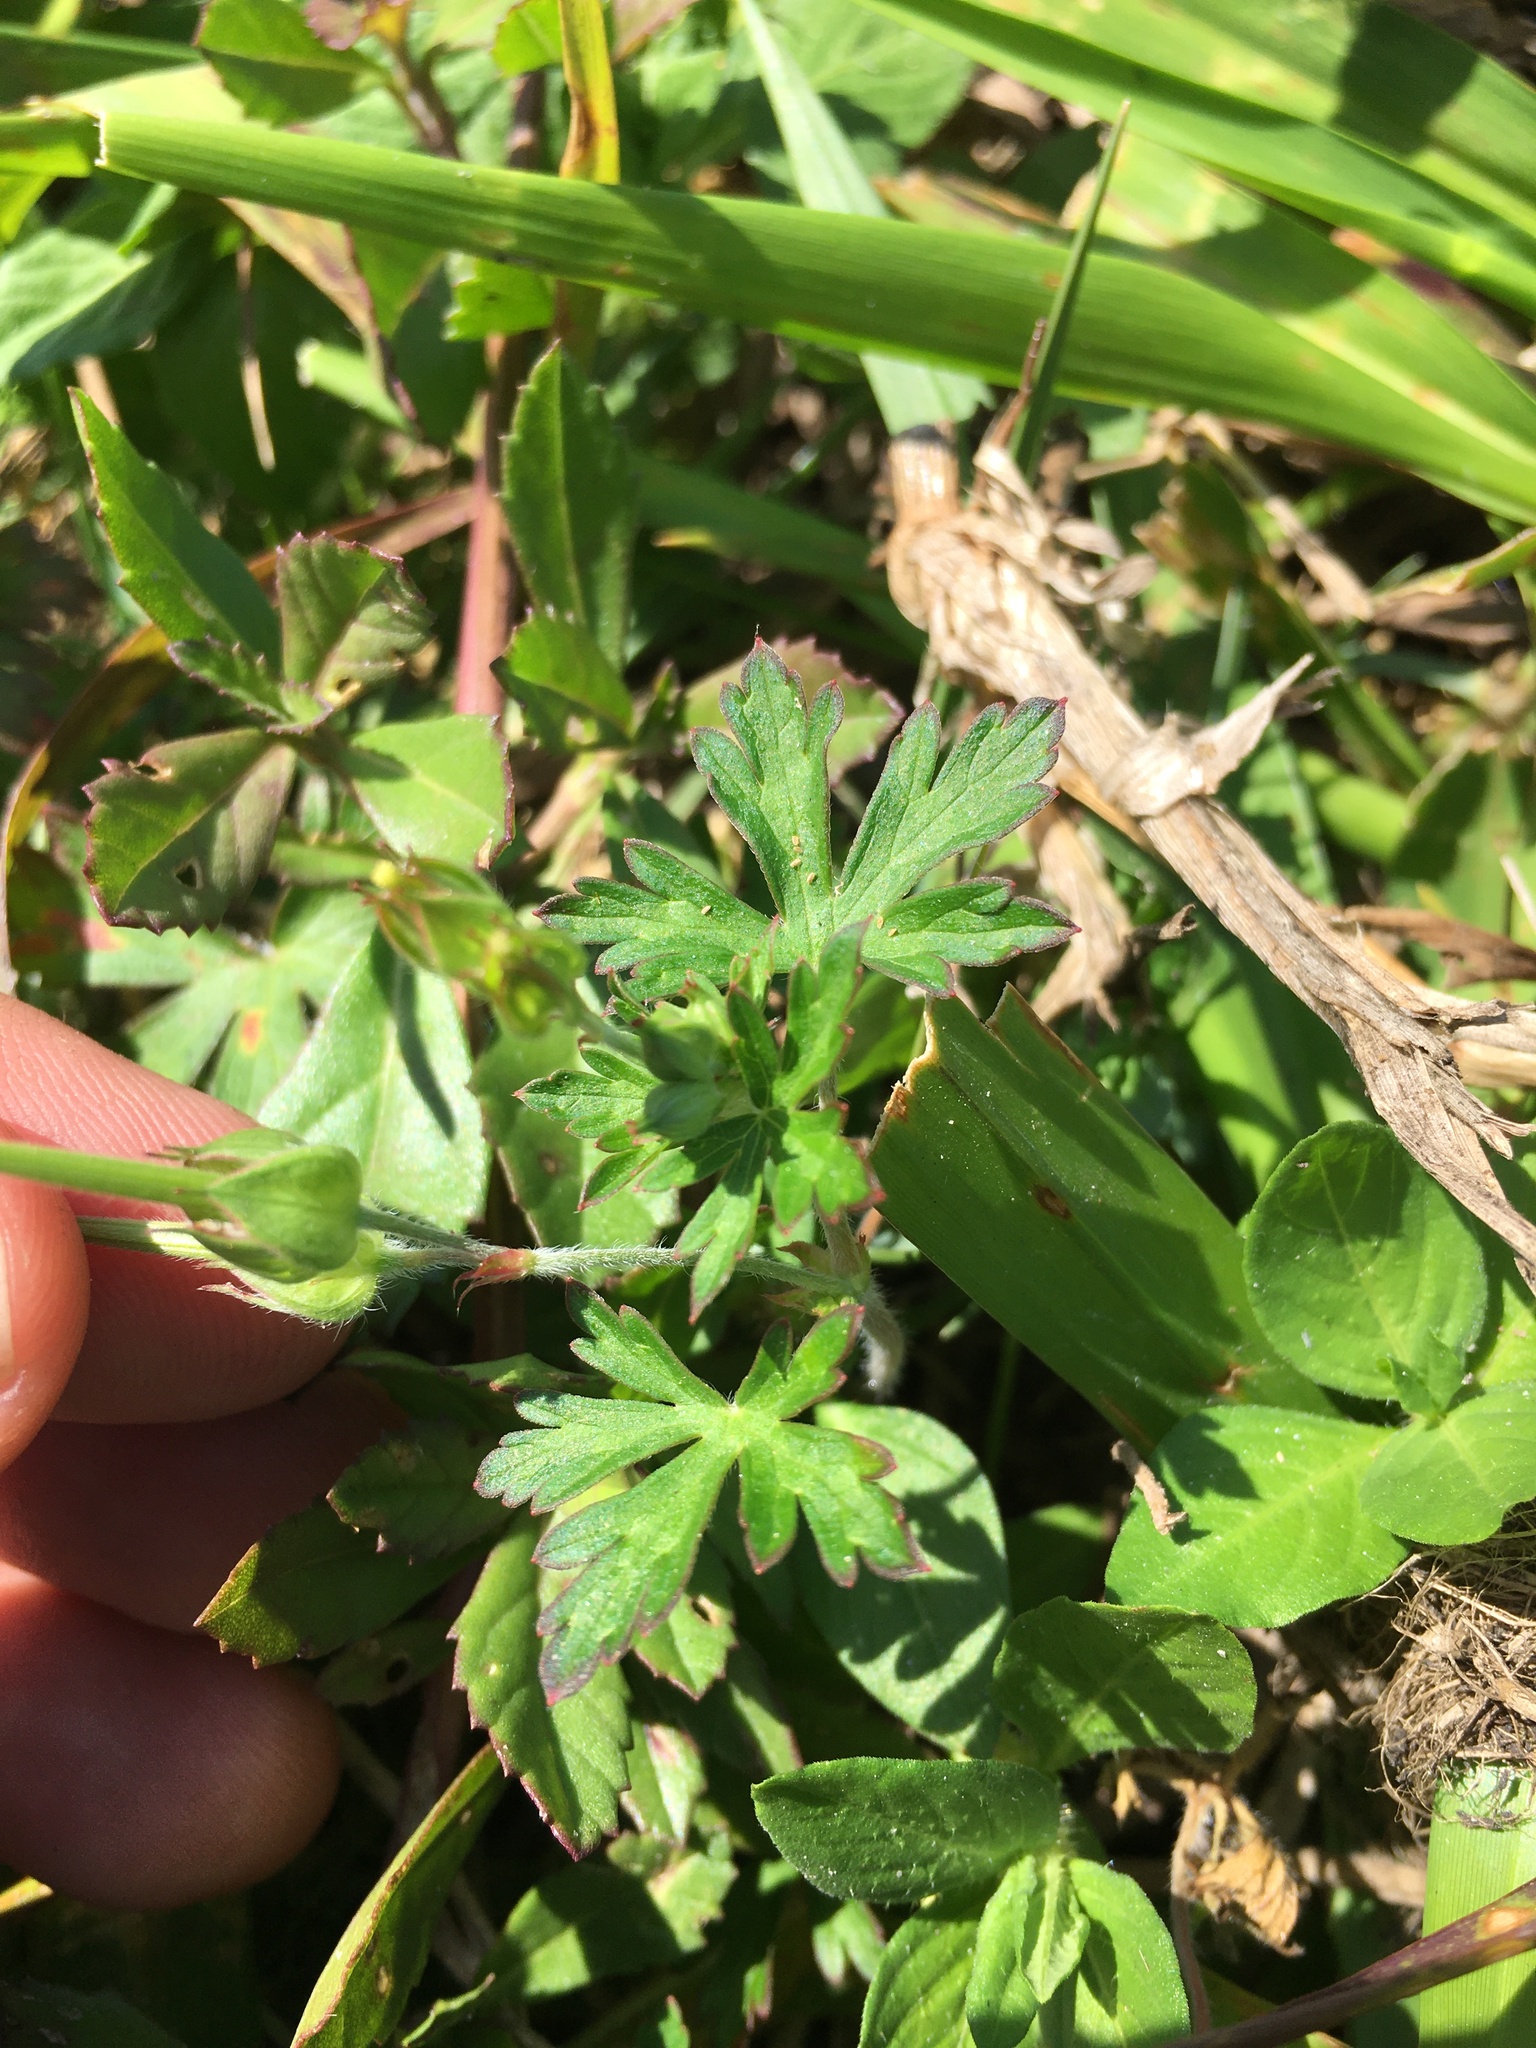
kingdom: Plantae
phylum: Tracheophyta
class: Magnoliopsida
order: Geraniales
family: Geraniaceae
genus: Geranium
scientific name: Geranium carolinianum
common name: Carolina crane's-bill
